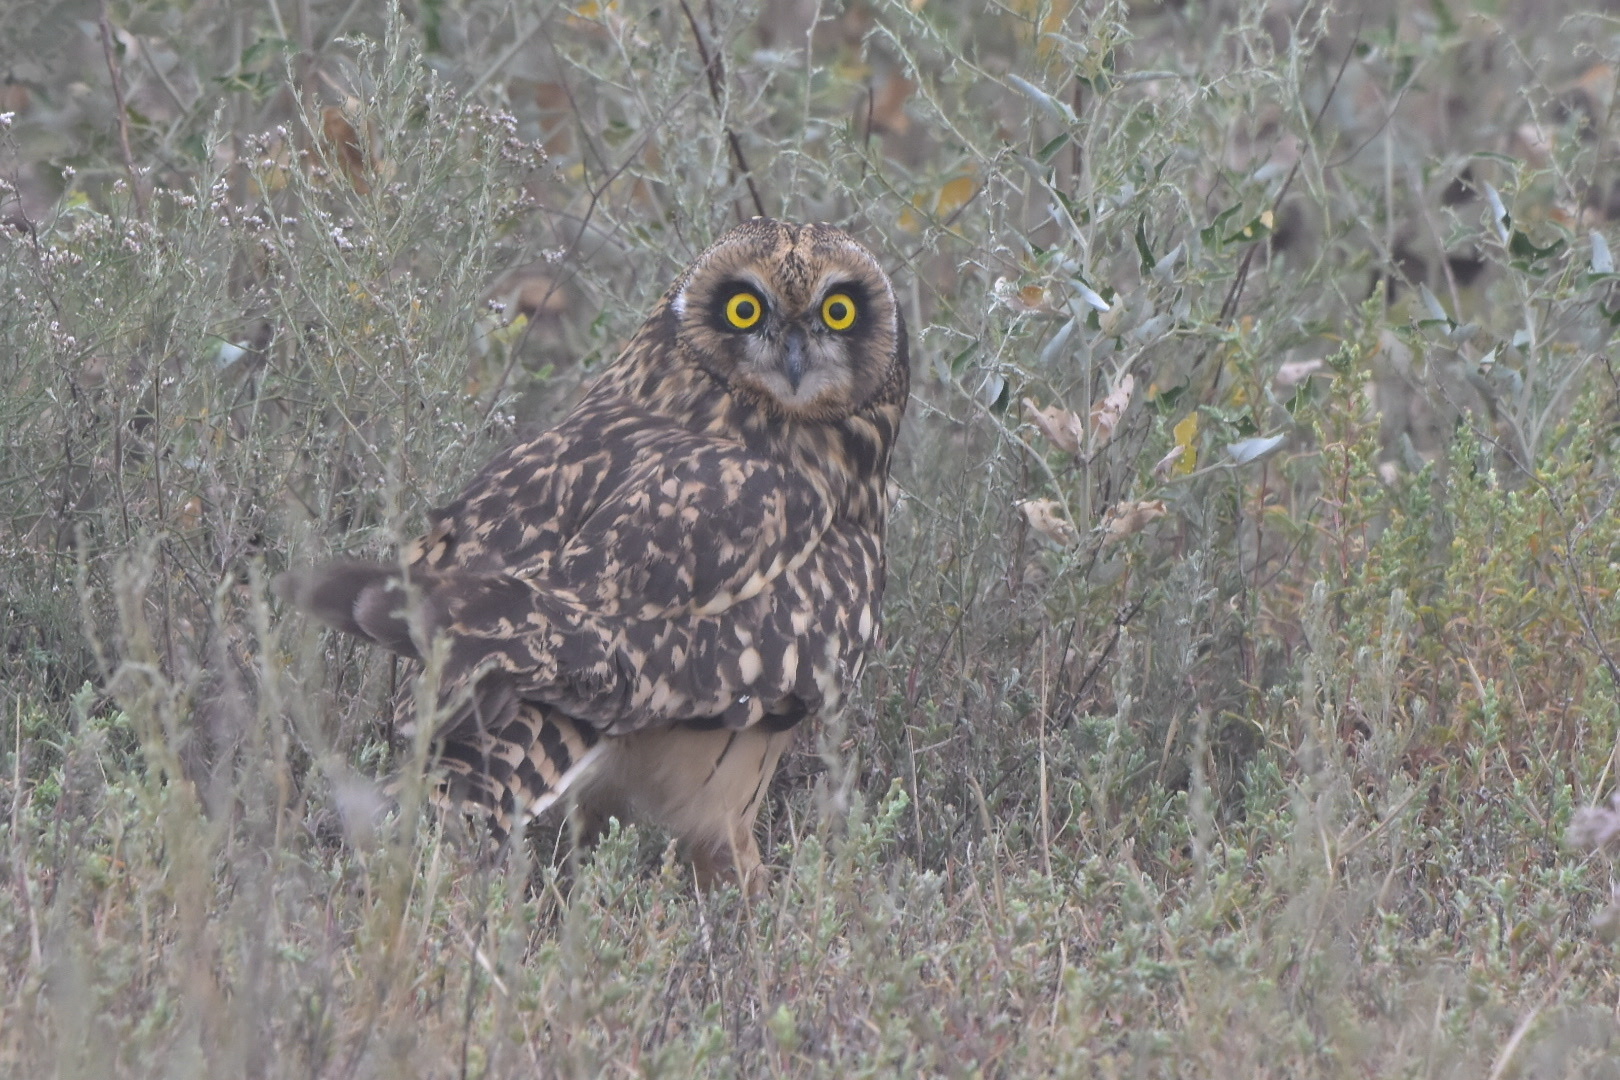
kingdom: Animalia
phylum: Chordata
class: Aves
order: Strigiformes
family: Strigidae
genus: Asio
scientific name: Asio flammeus
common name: Short-eared owl
